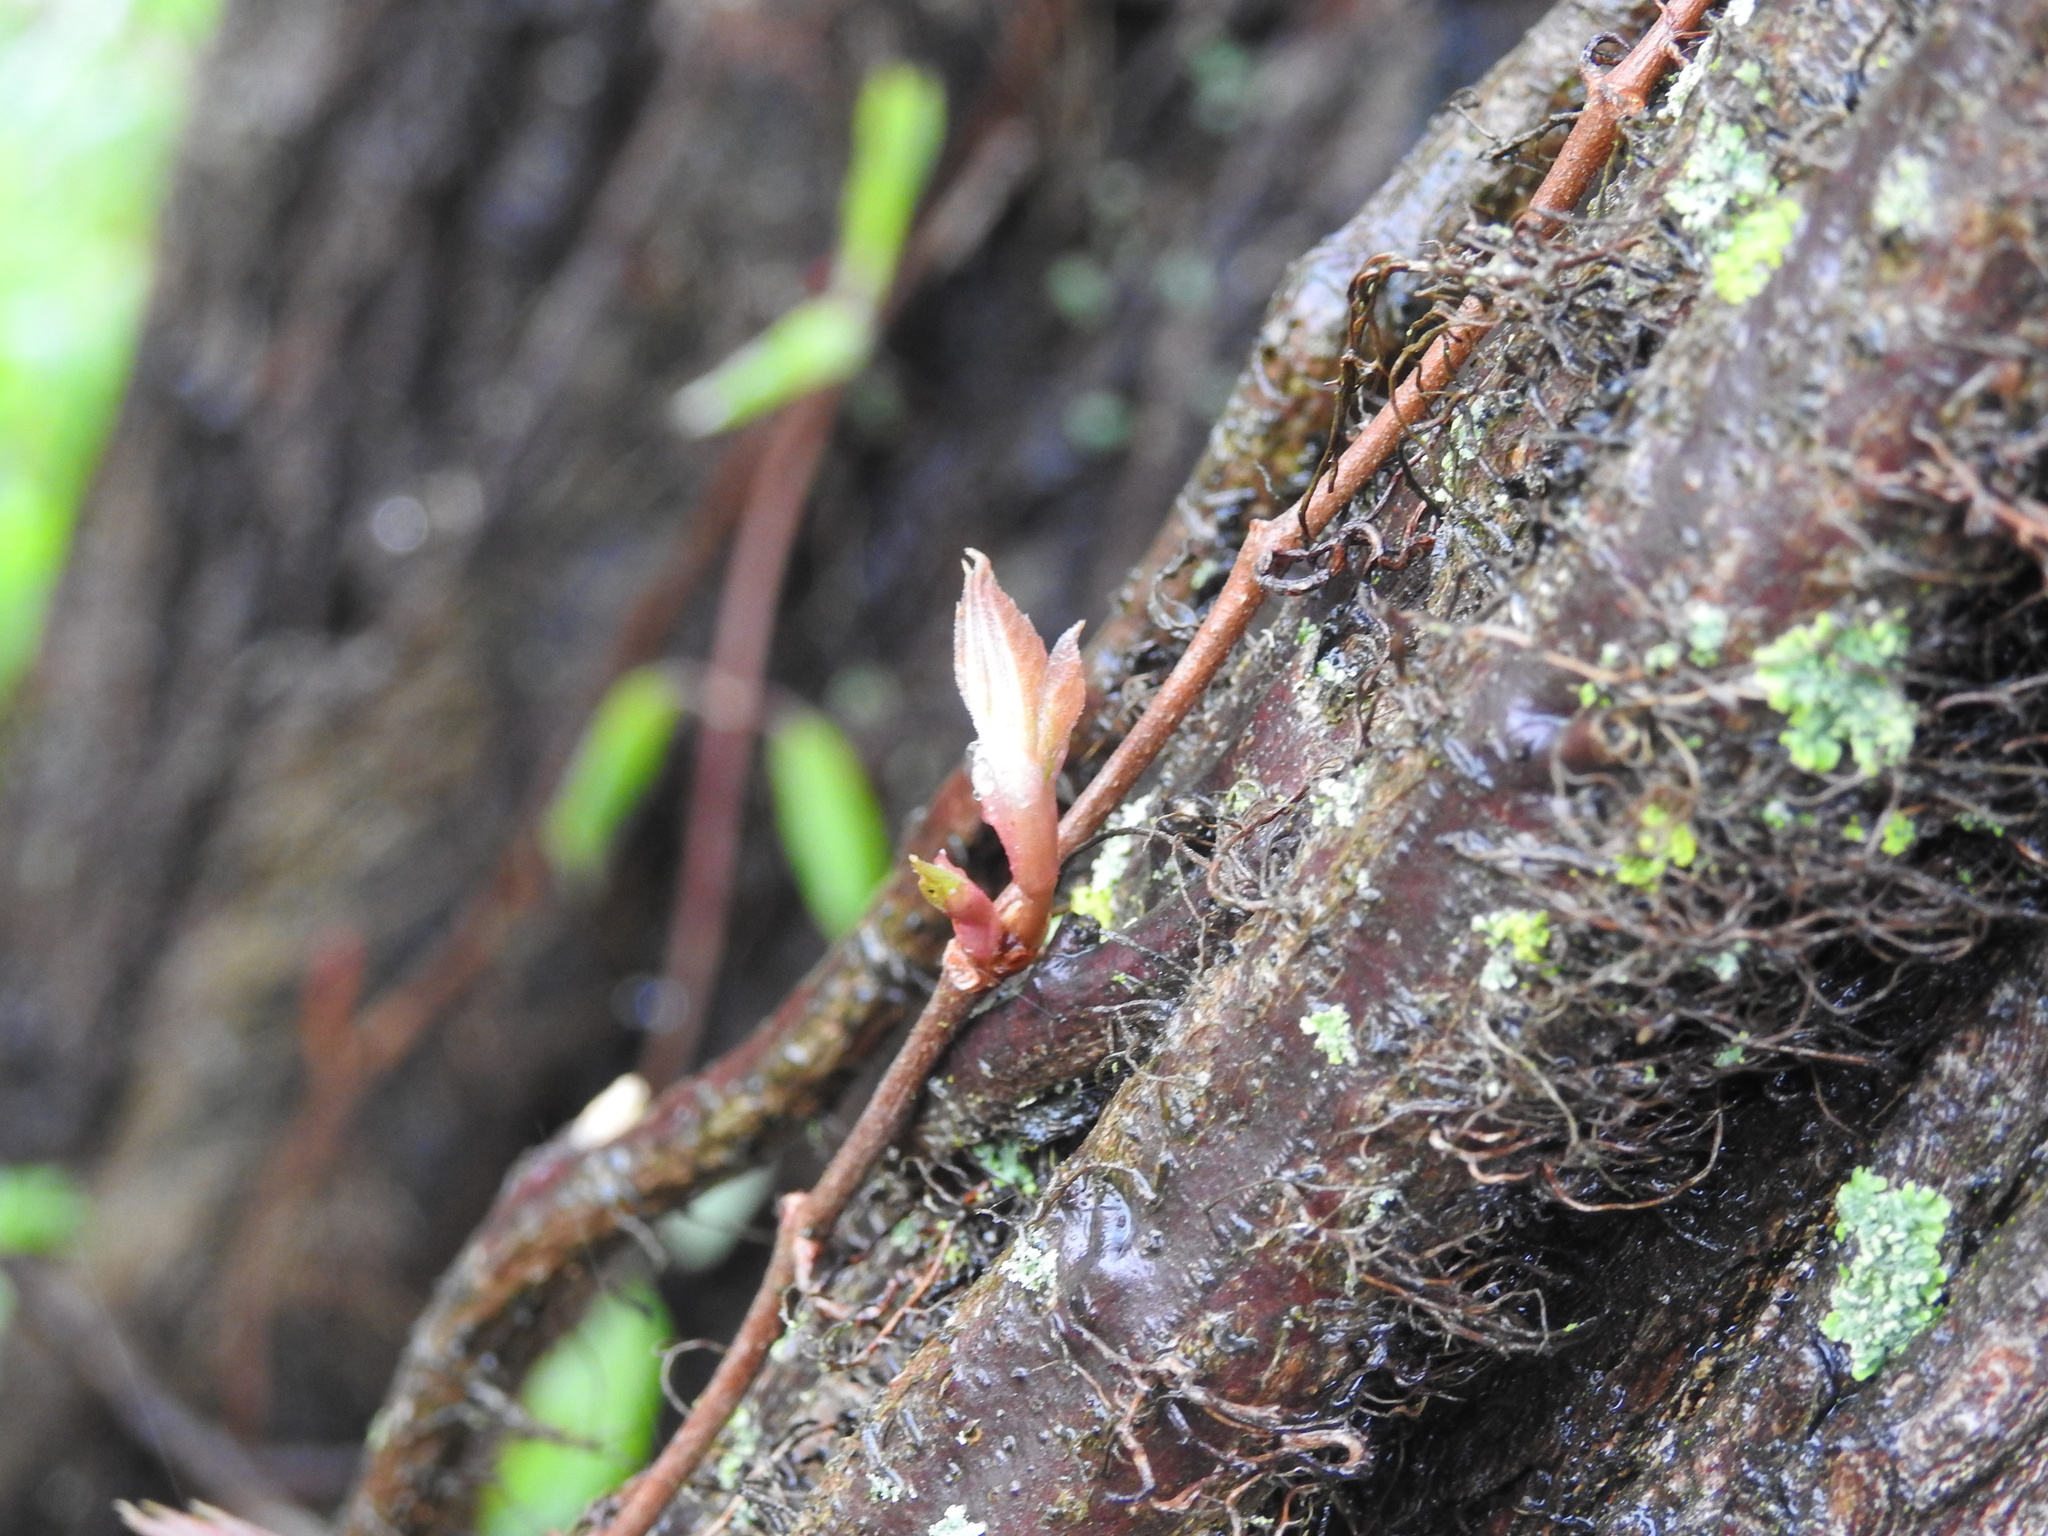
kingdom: Plantae
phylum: Tracheophyta
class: Magnoliopsida
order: Sapindales
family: Anacardiaceae
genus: Toxicodendron
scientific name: Toxicodendron radicans
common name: Poison ivy
